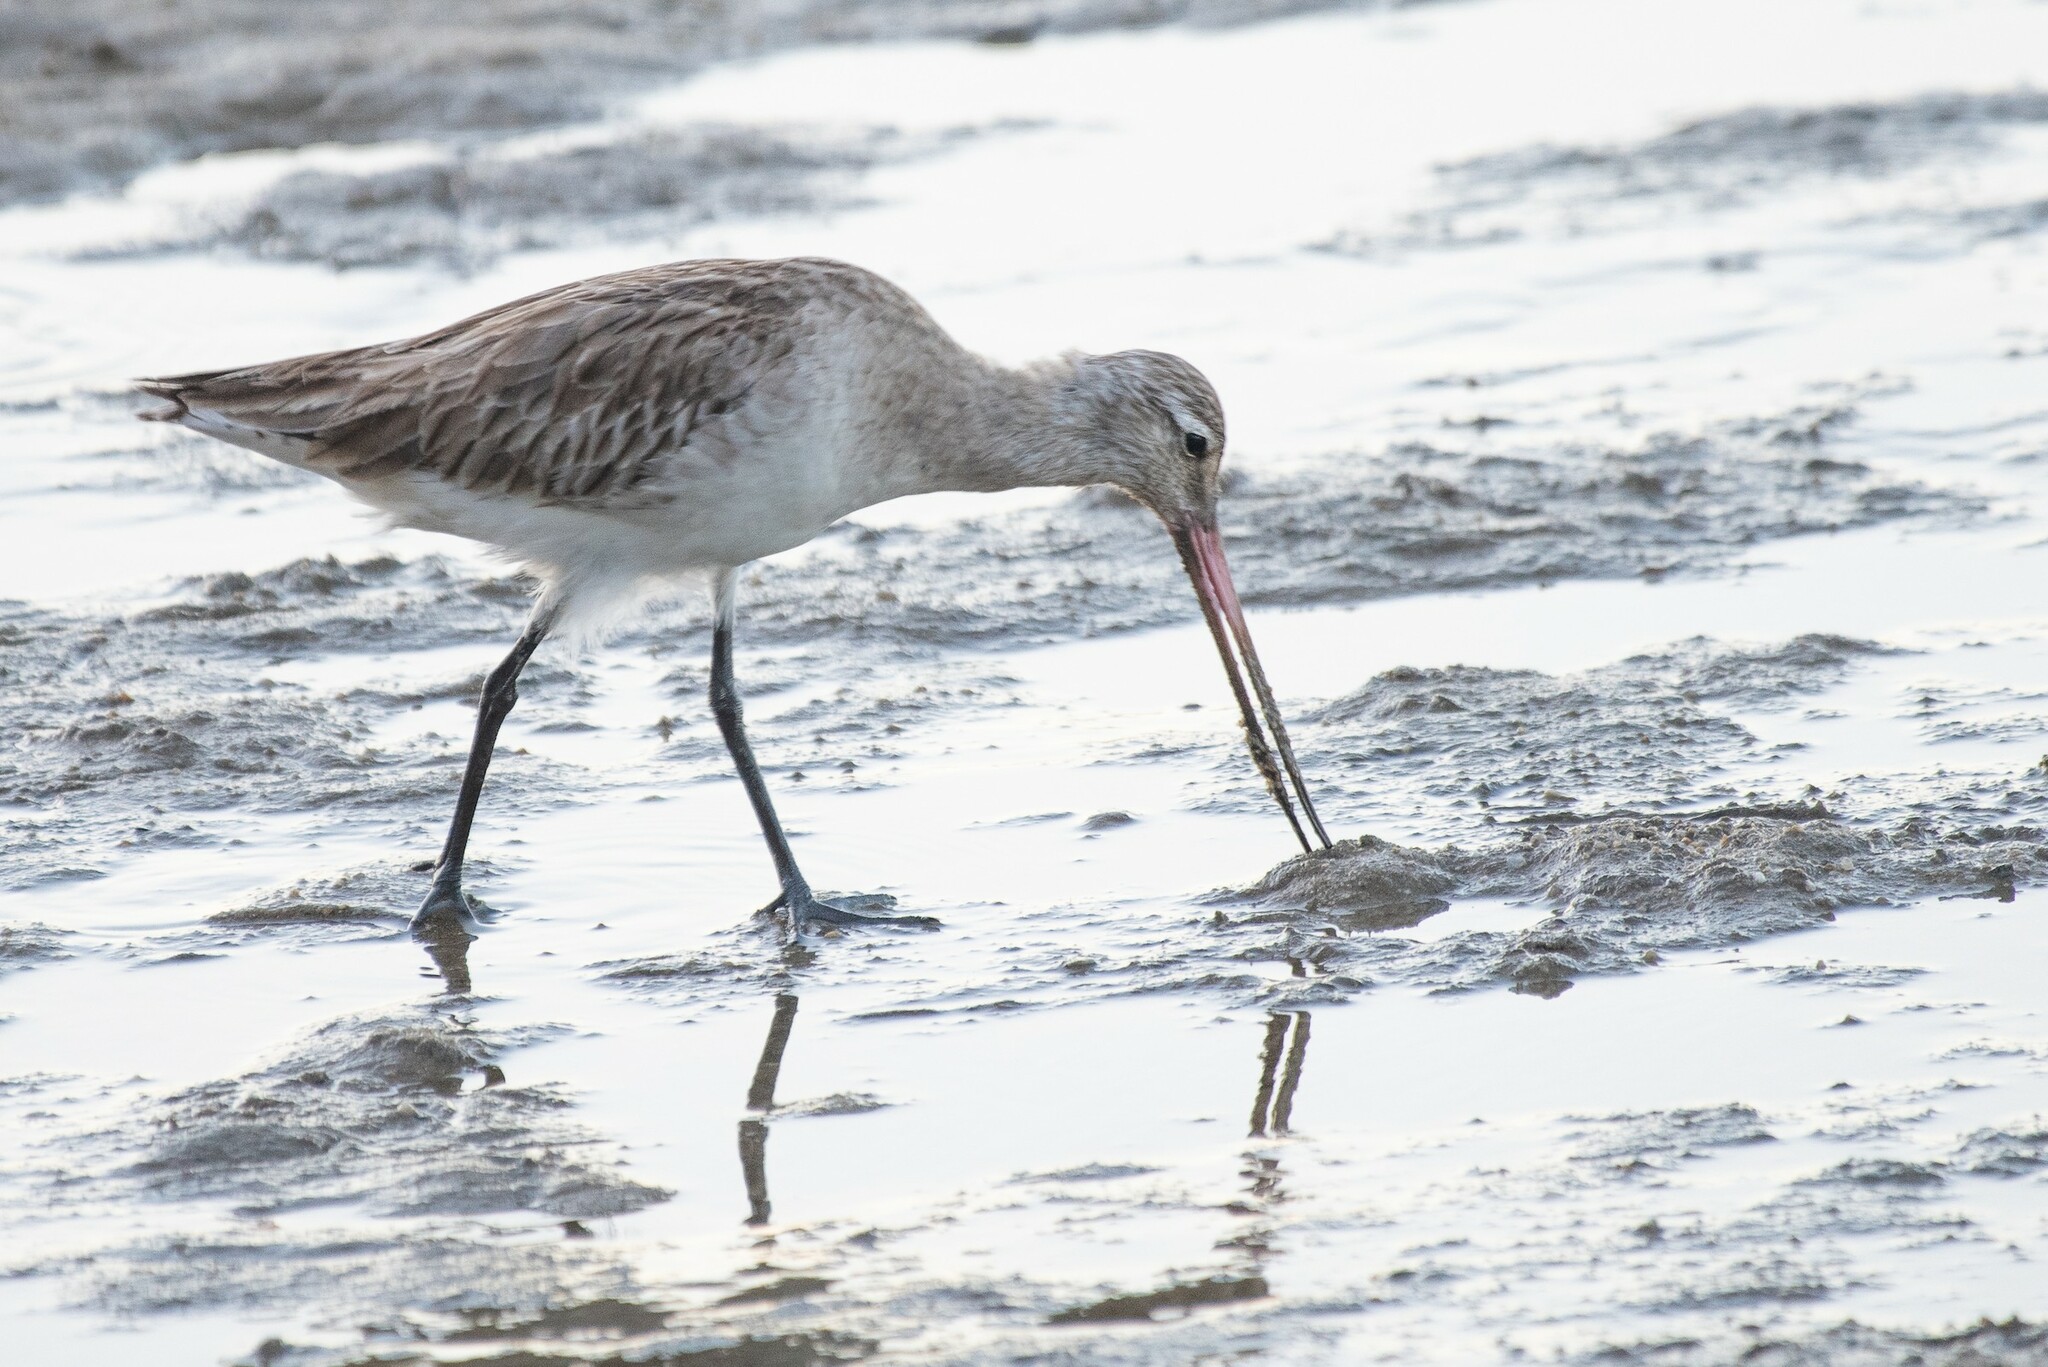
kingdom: Animalia
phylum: Chordata
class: Aves
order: Charadriiformes
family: Scolopacidae
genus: Limosa
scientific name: Limosa lapponica
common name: Bar-tailed godwit
